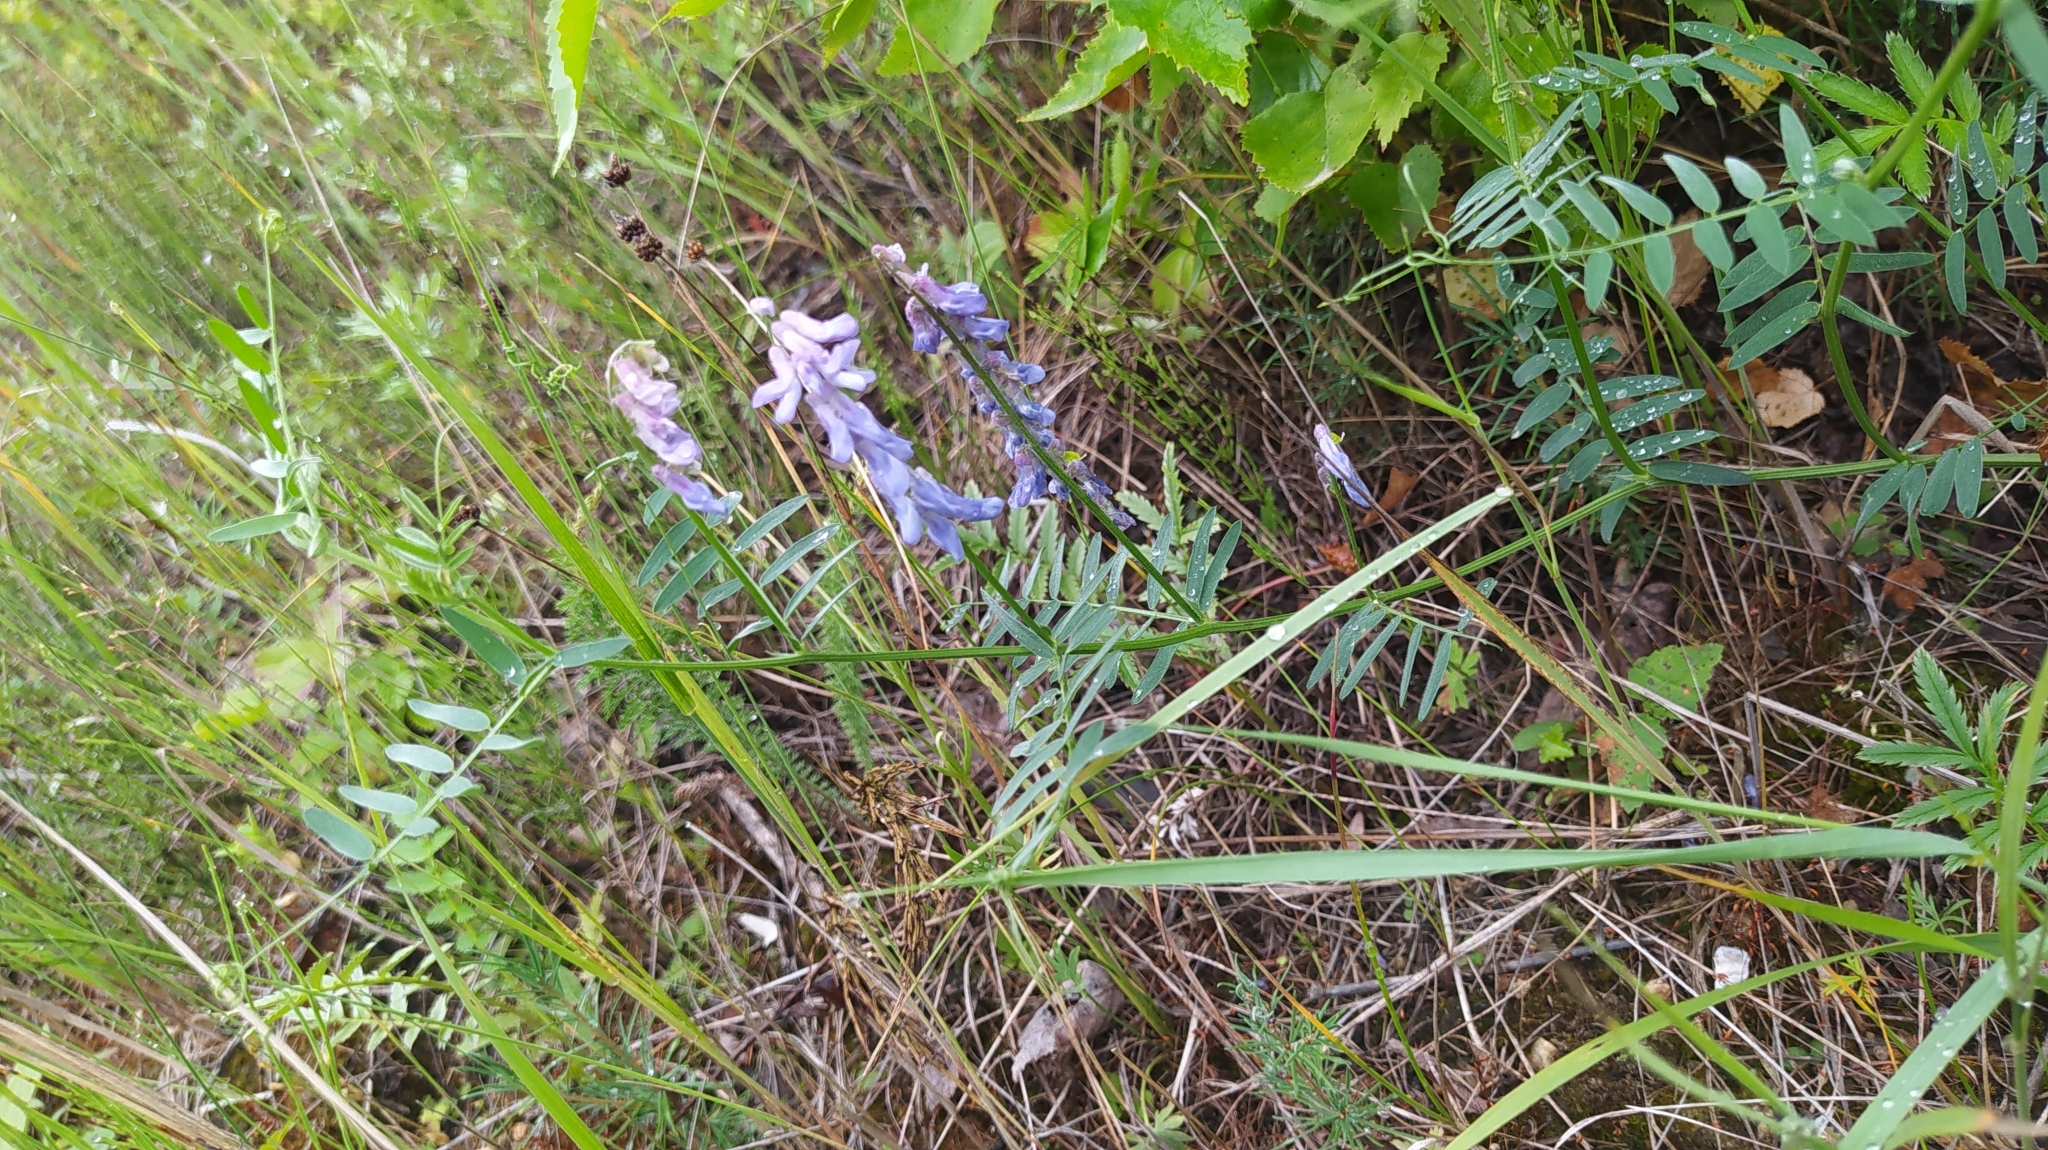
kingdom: Plantae
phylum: Tracheophyta
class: Magnoliopsida
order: Fabales
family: Fabaceae
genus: Vicia
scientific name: Vicia cracca
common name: Bird vetch
